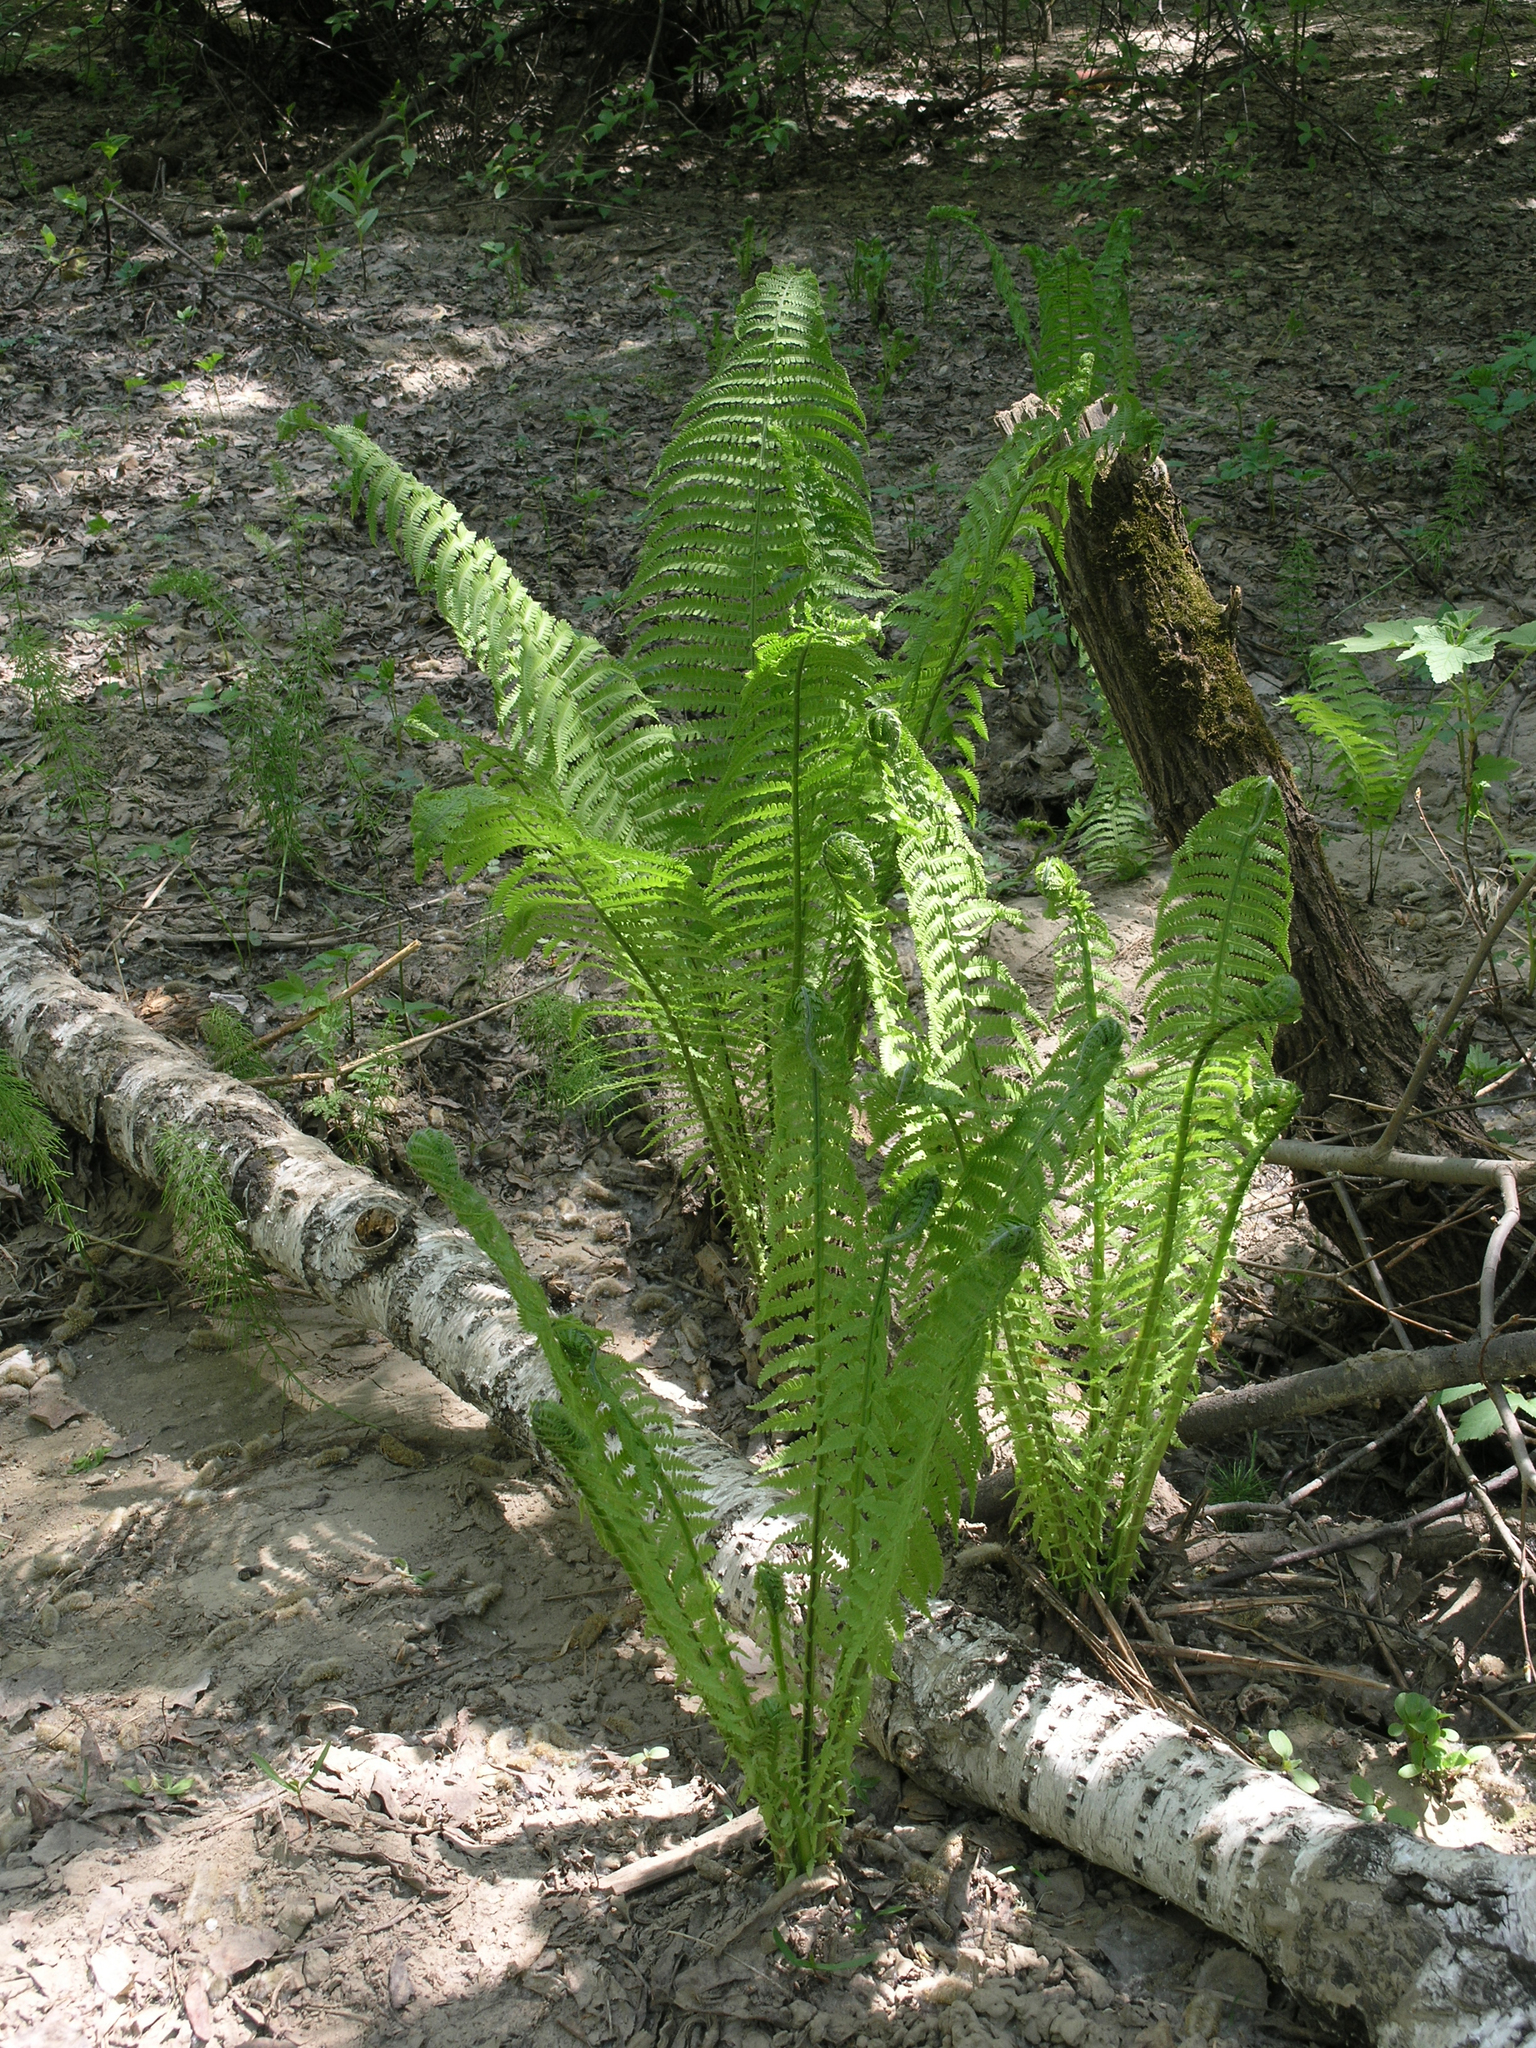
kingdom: Plantae
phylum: Tracheophyta
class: Polypodiopsida
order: Polypodiales
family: Onocleaceae
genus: Matteuccia
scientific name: Matteuccia struthiopteris
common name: Ostrich fern
